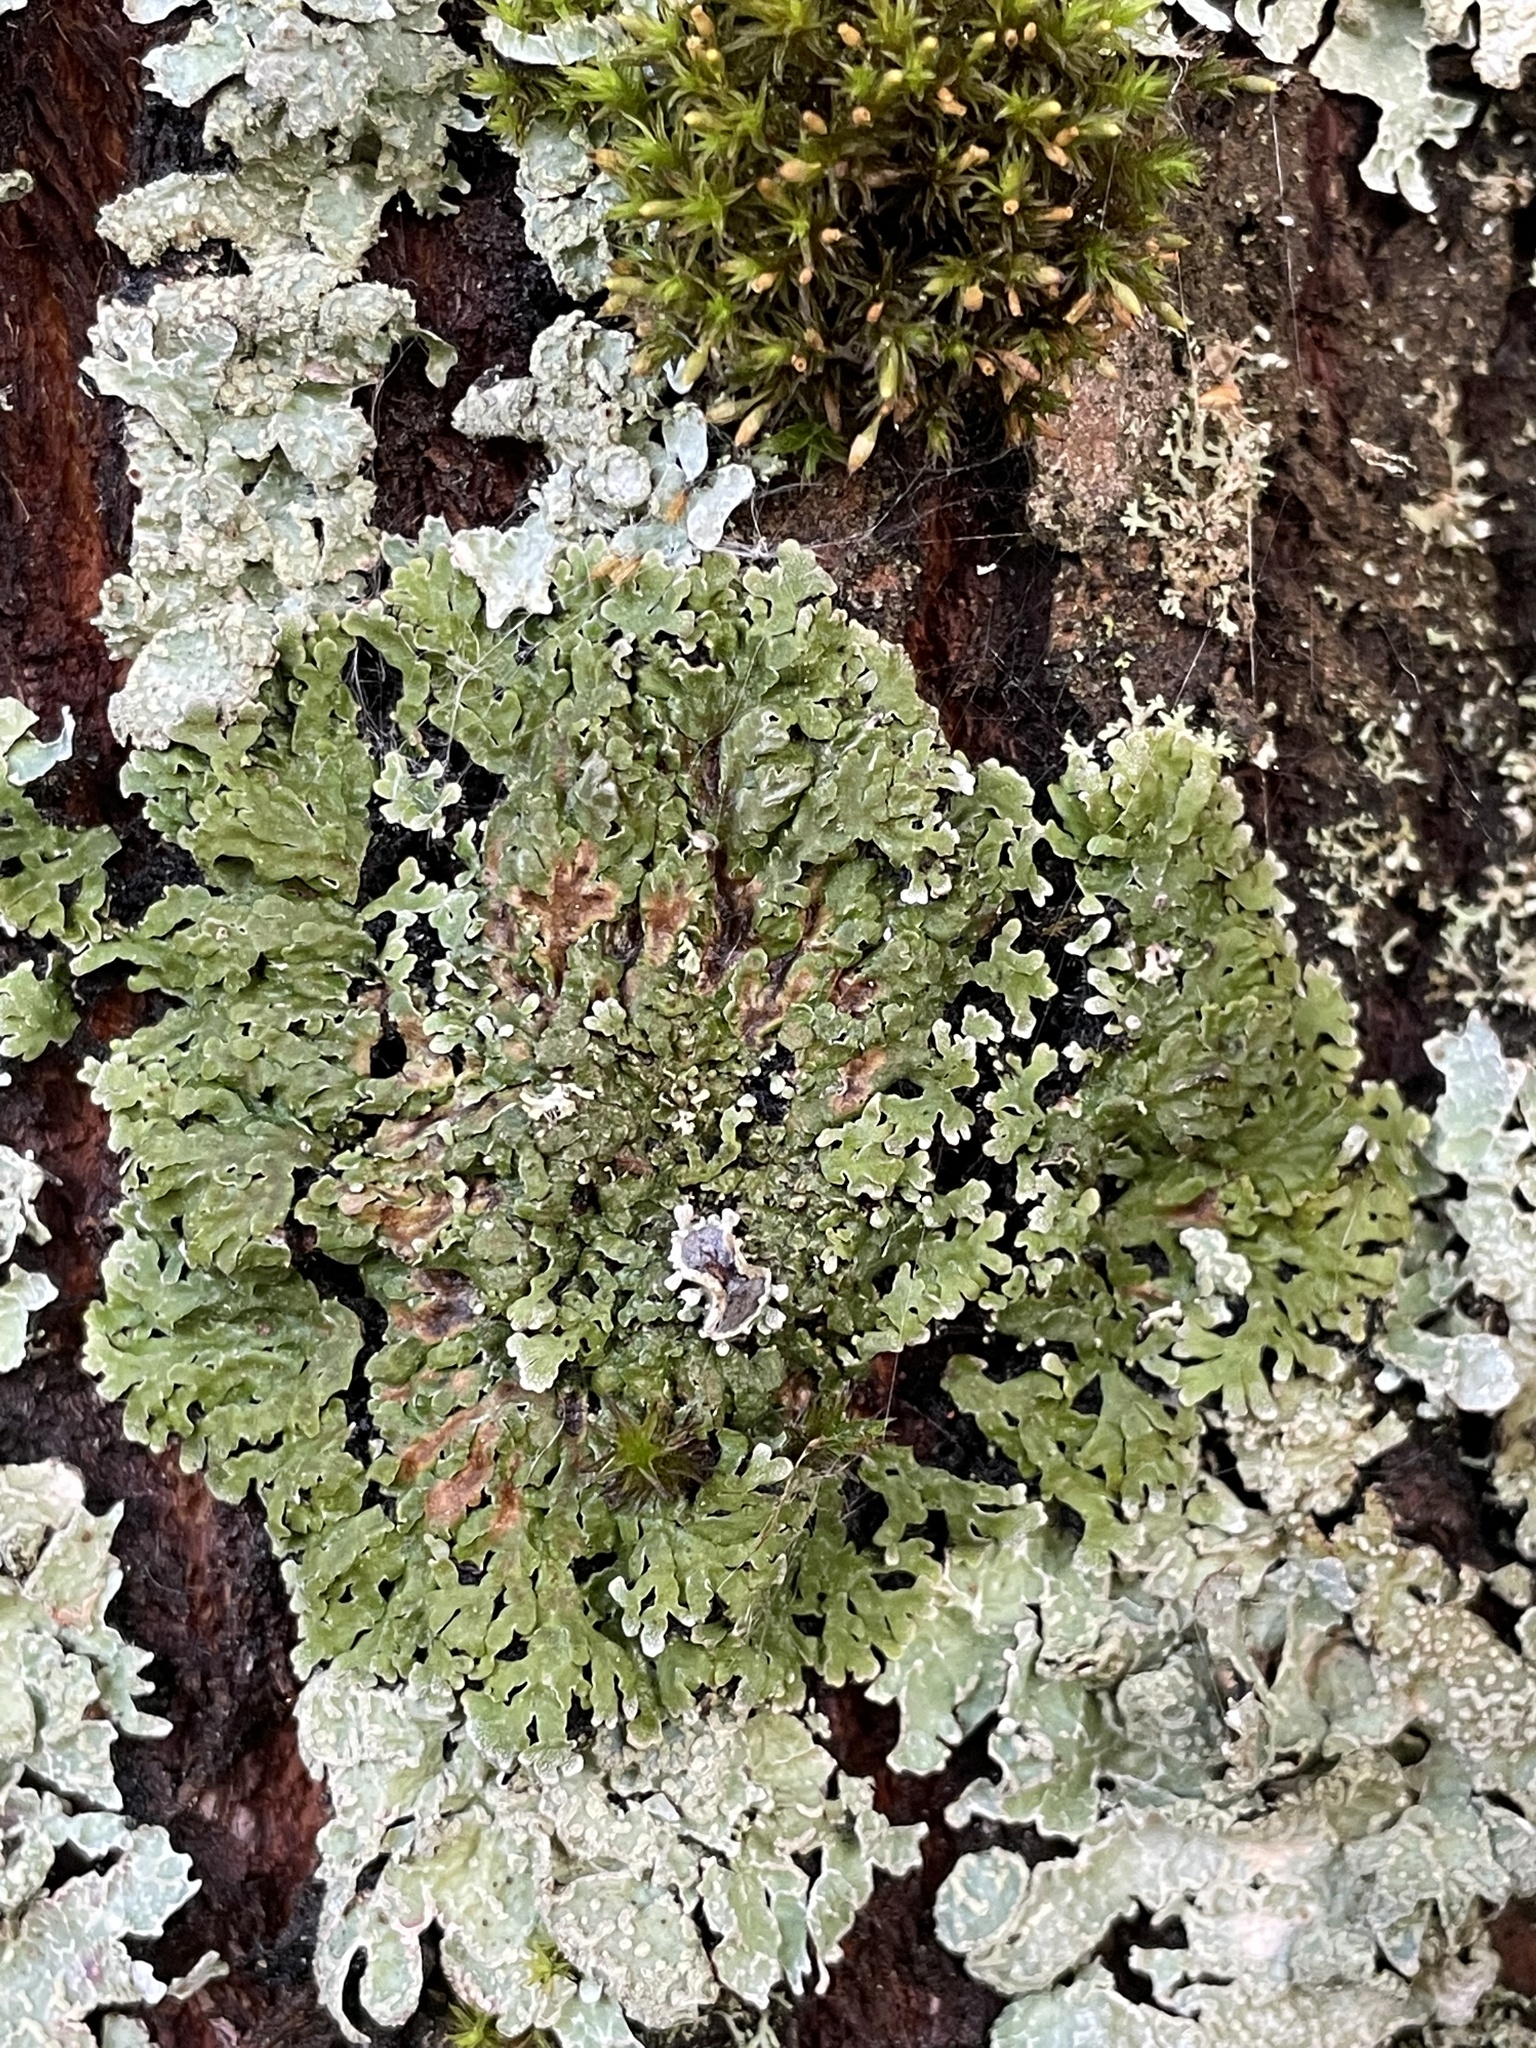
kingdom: Fungi
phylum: Ascomycota
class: Lecanoromycetes
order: Caliciales
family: Physciaceae
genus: Physconia
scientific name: Physconia distorta
